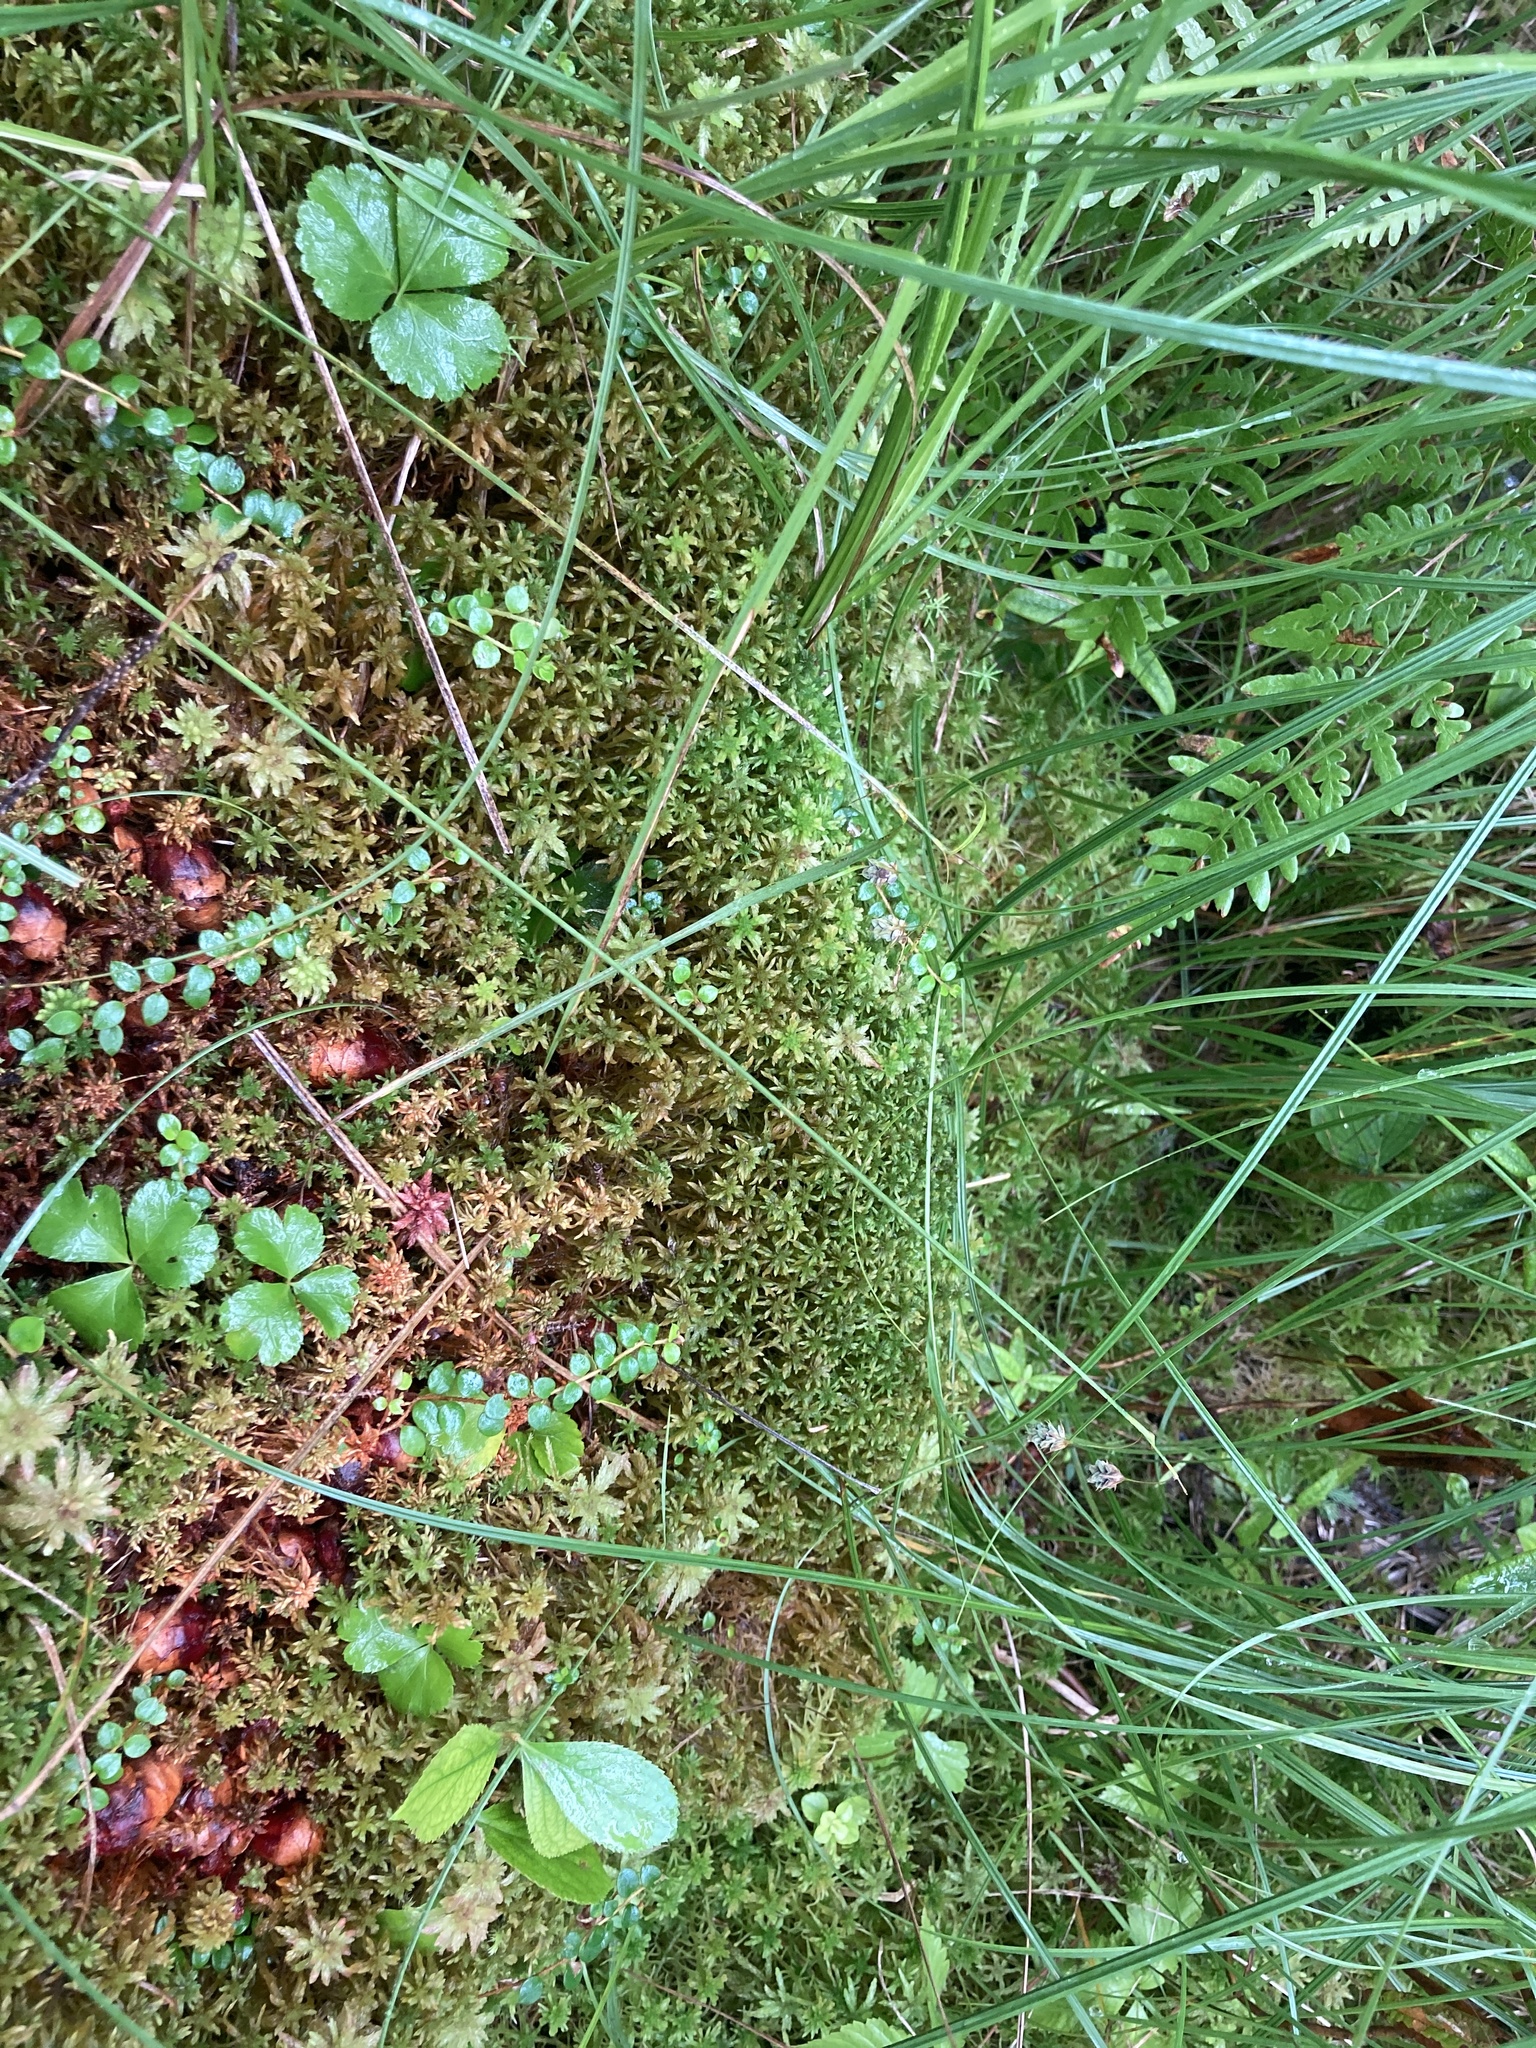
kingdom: Plantae
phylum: Tracheophyta
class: Liliopsida
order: Poales
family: Cyperaceae
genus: Carex
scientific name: Carex magellanica
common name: Bog sedge
